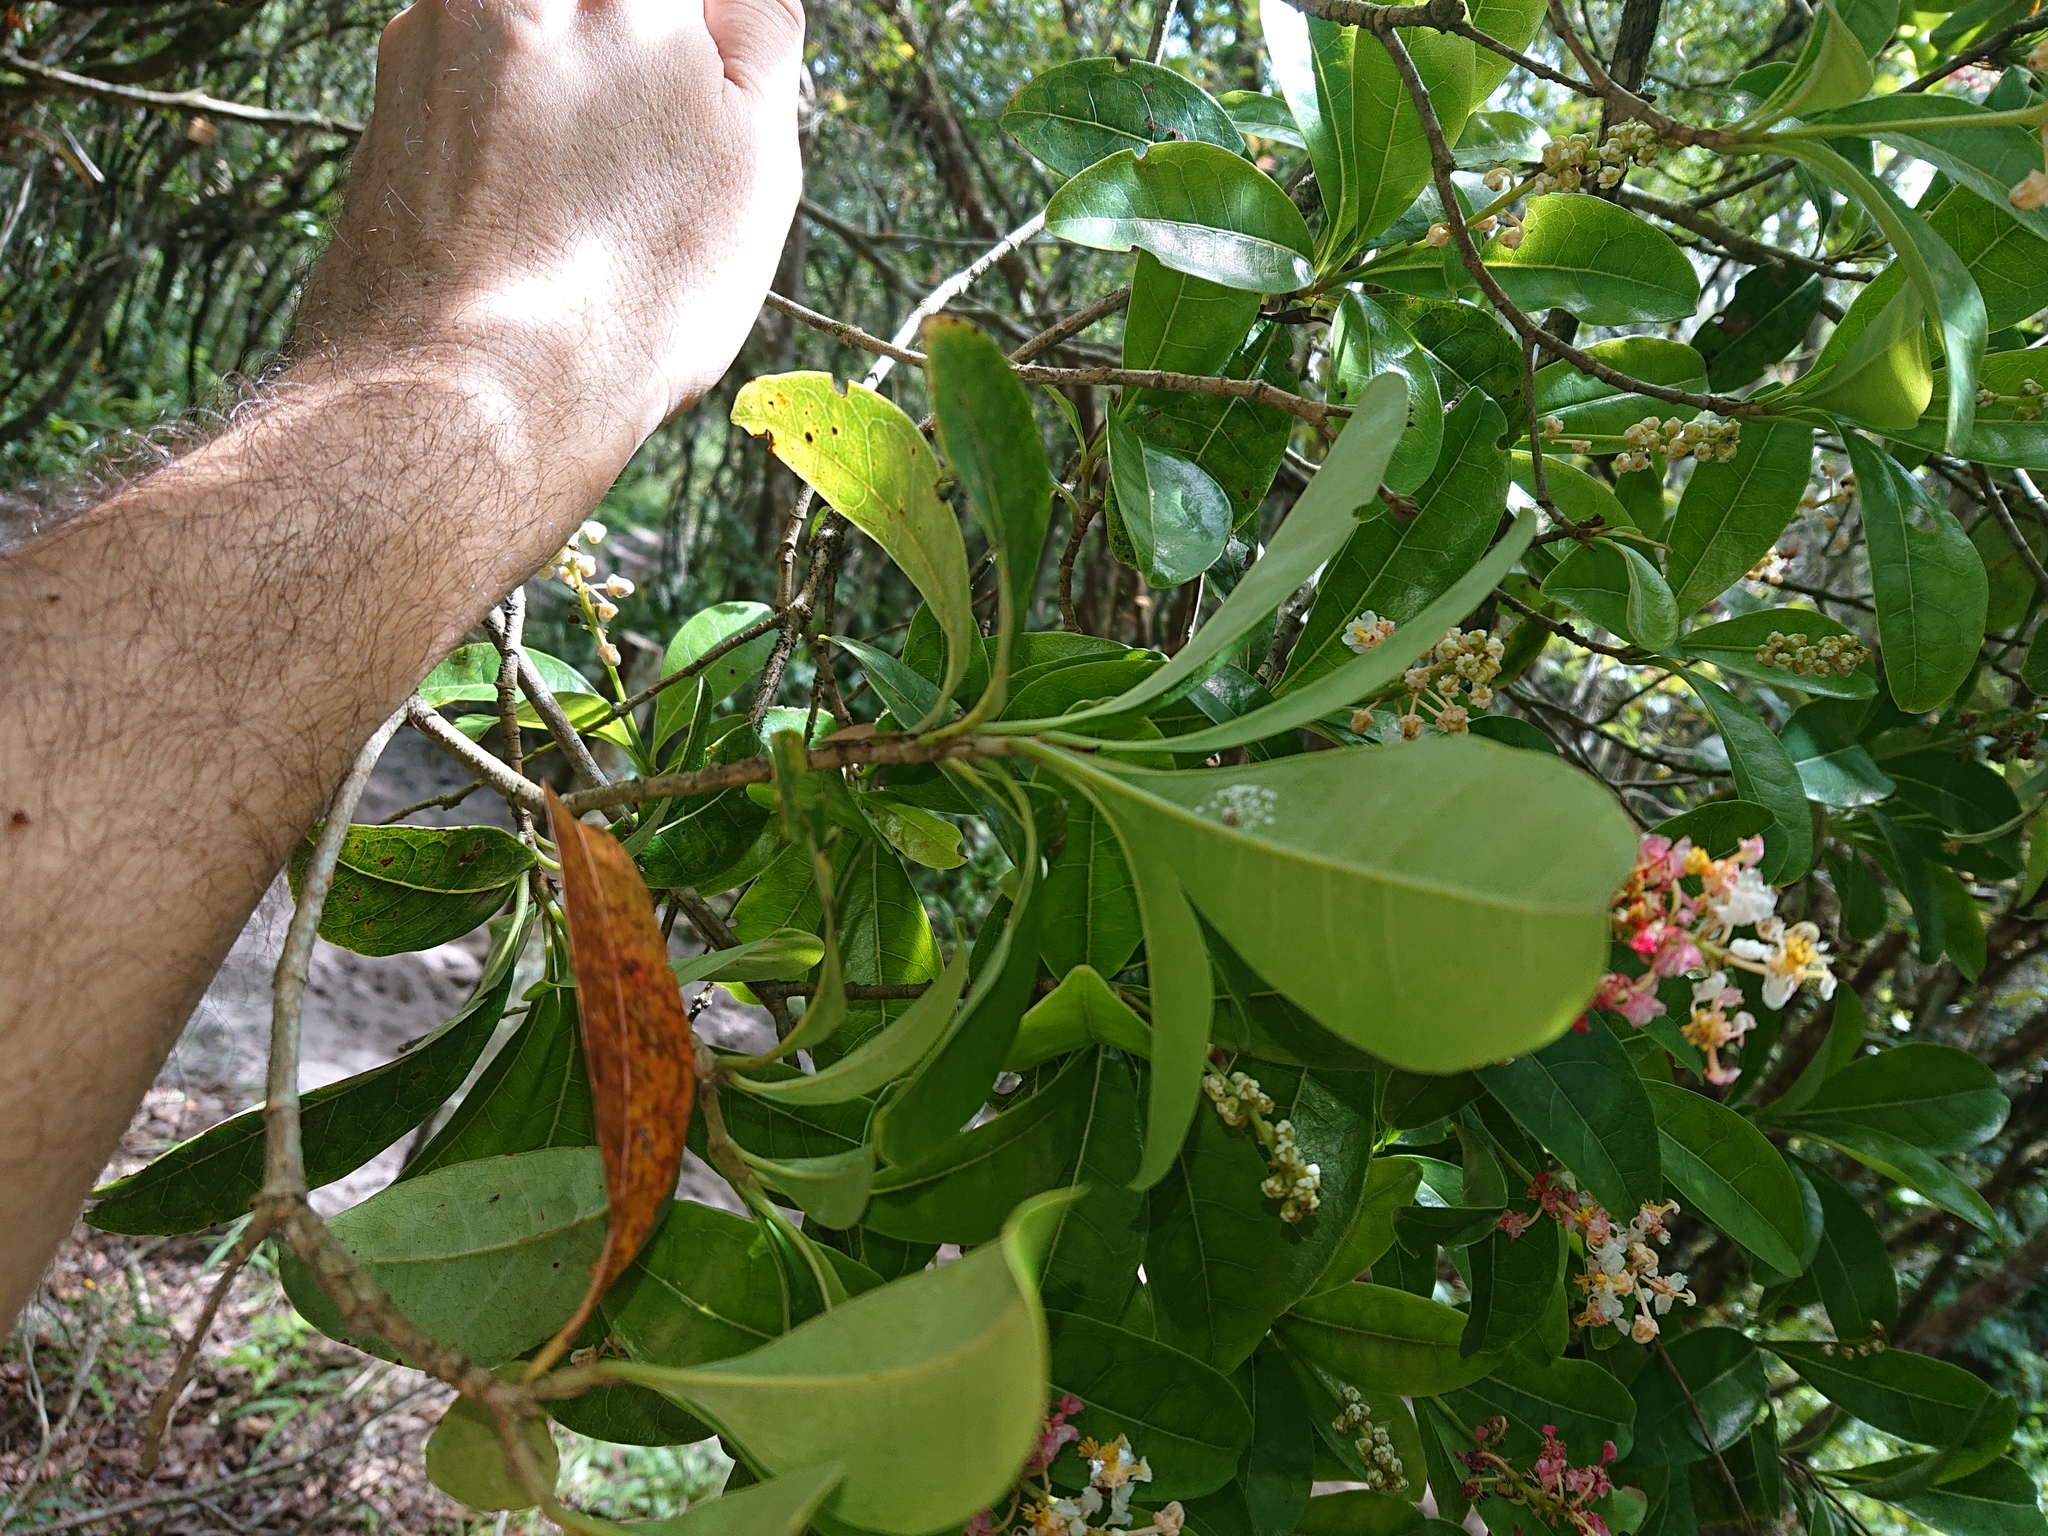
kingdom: Plantae
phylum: Tracheophyta
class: Magnoliopsida
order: Malpighiales
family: Malpighiaceae
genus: Byrsonima
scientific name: Byrsonima ligustrifolia
